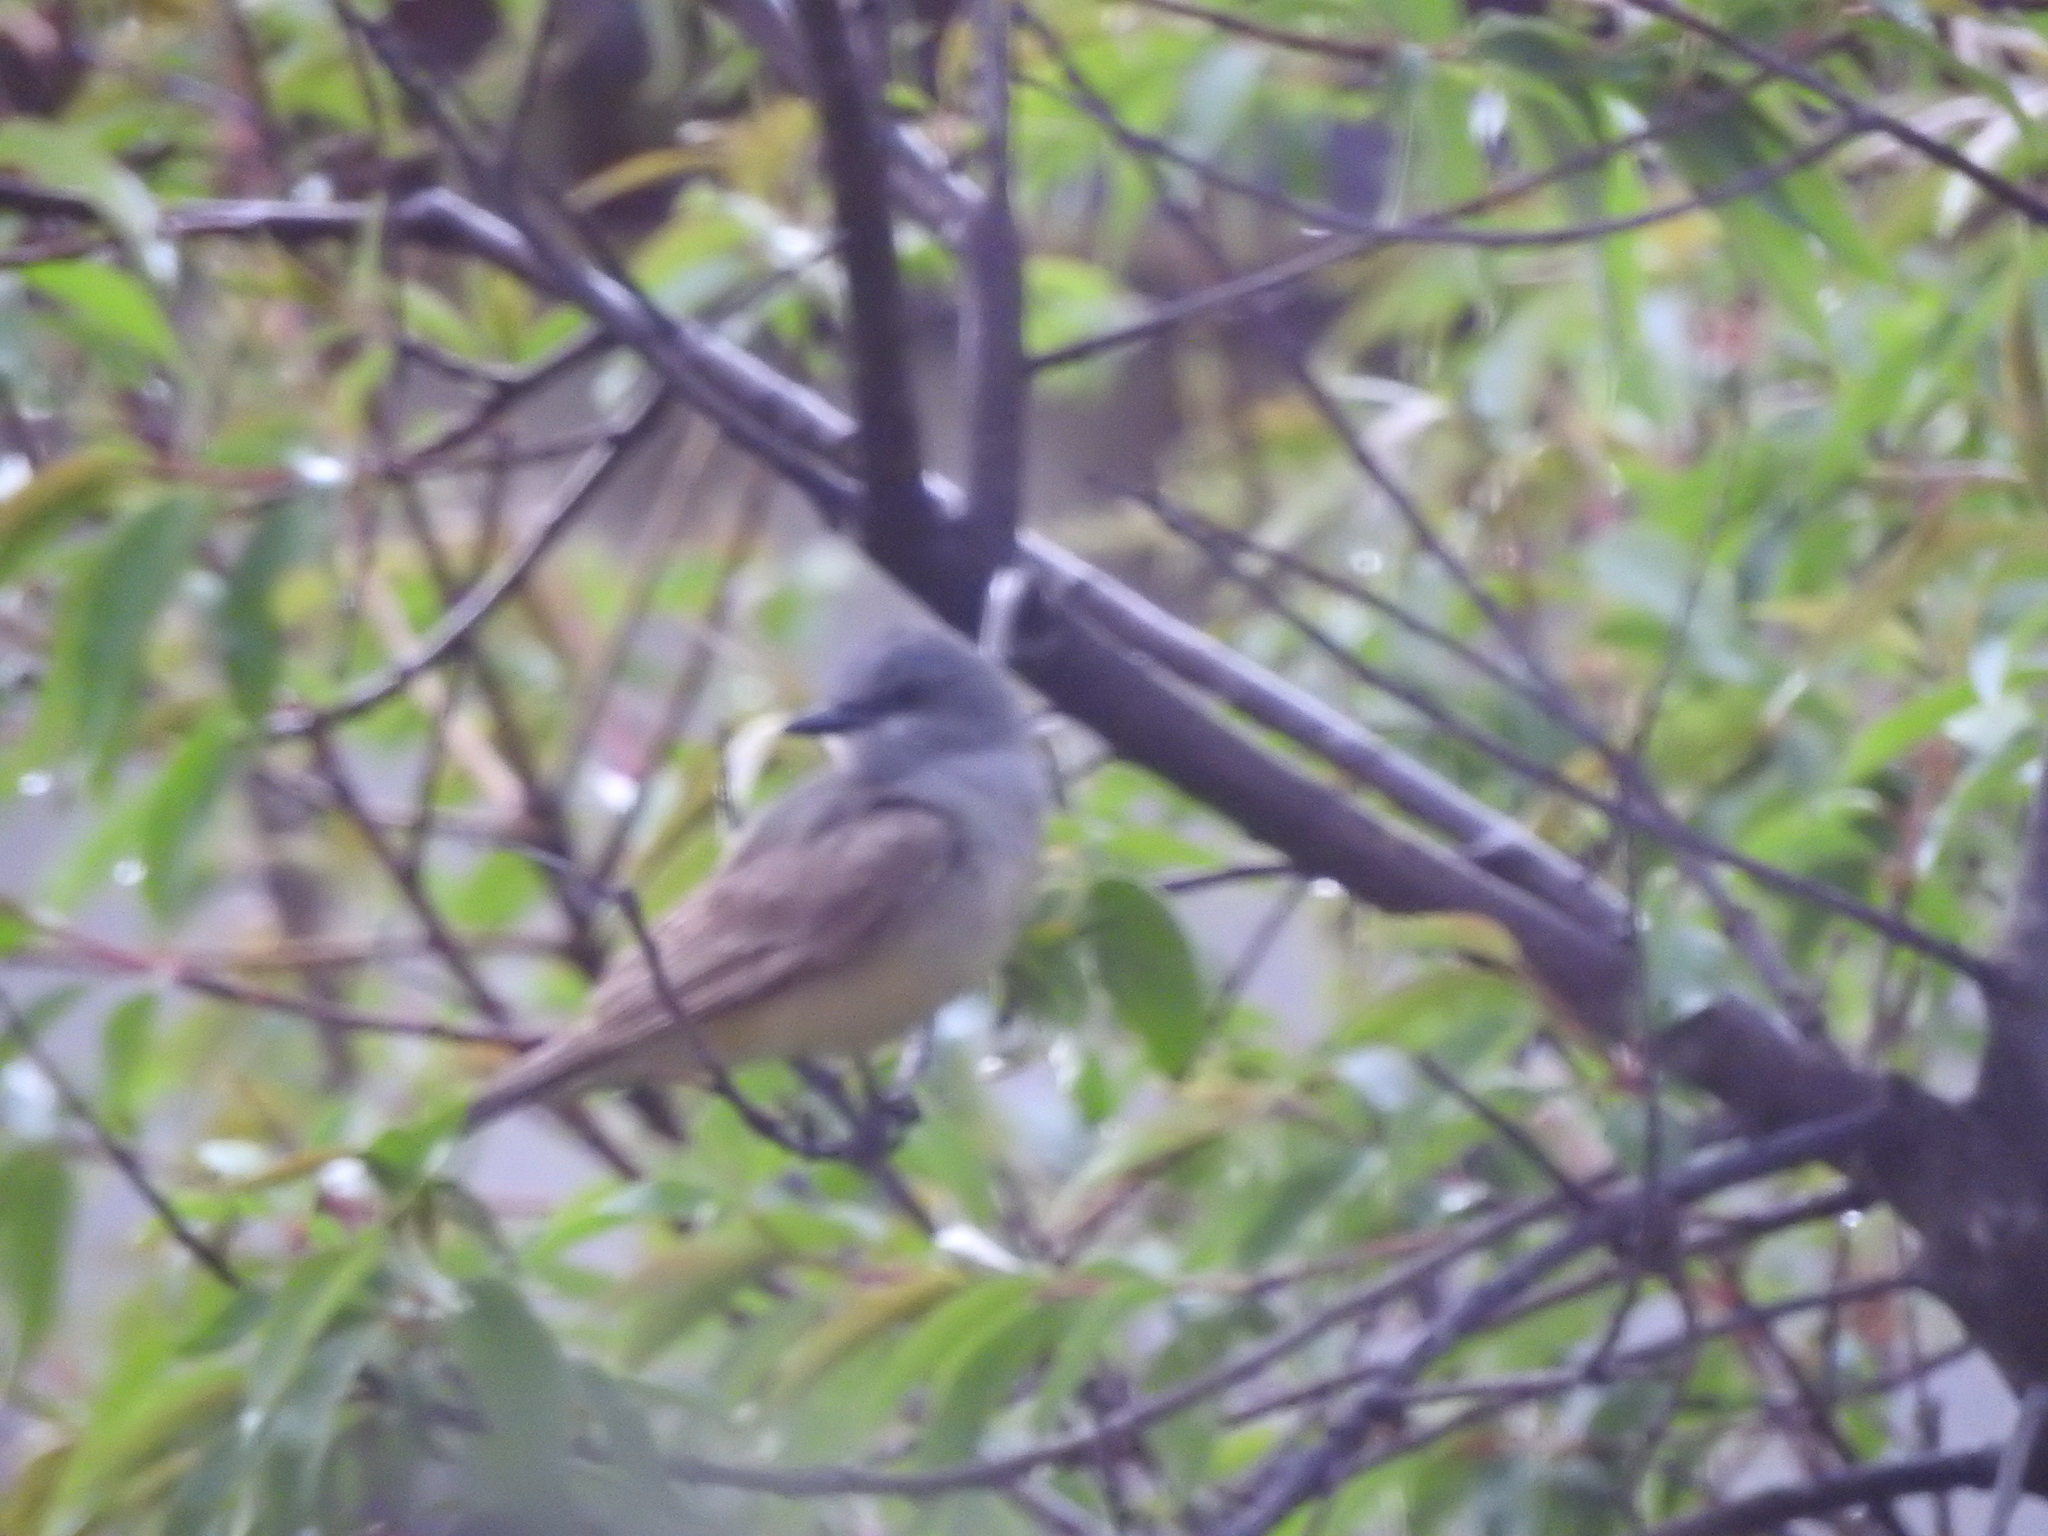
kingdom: Animalia
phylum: Chordata
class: Aves
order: Passeriformes
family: Tyrannidae
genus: Tyrannus
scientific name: Tyrannus vociferans
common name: Cassin's kingbird
